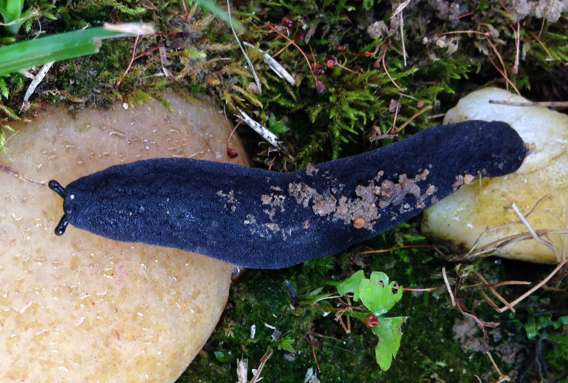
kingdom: Animalia
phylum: Mollusca
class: Gastropoda
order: Systellommatophora
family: Veronicellidae
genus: Belocaulus
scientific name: Belocaulus angustipes
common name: Black velvet leatherleaf slug
